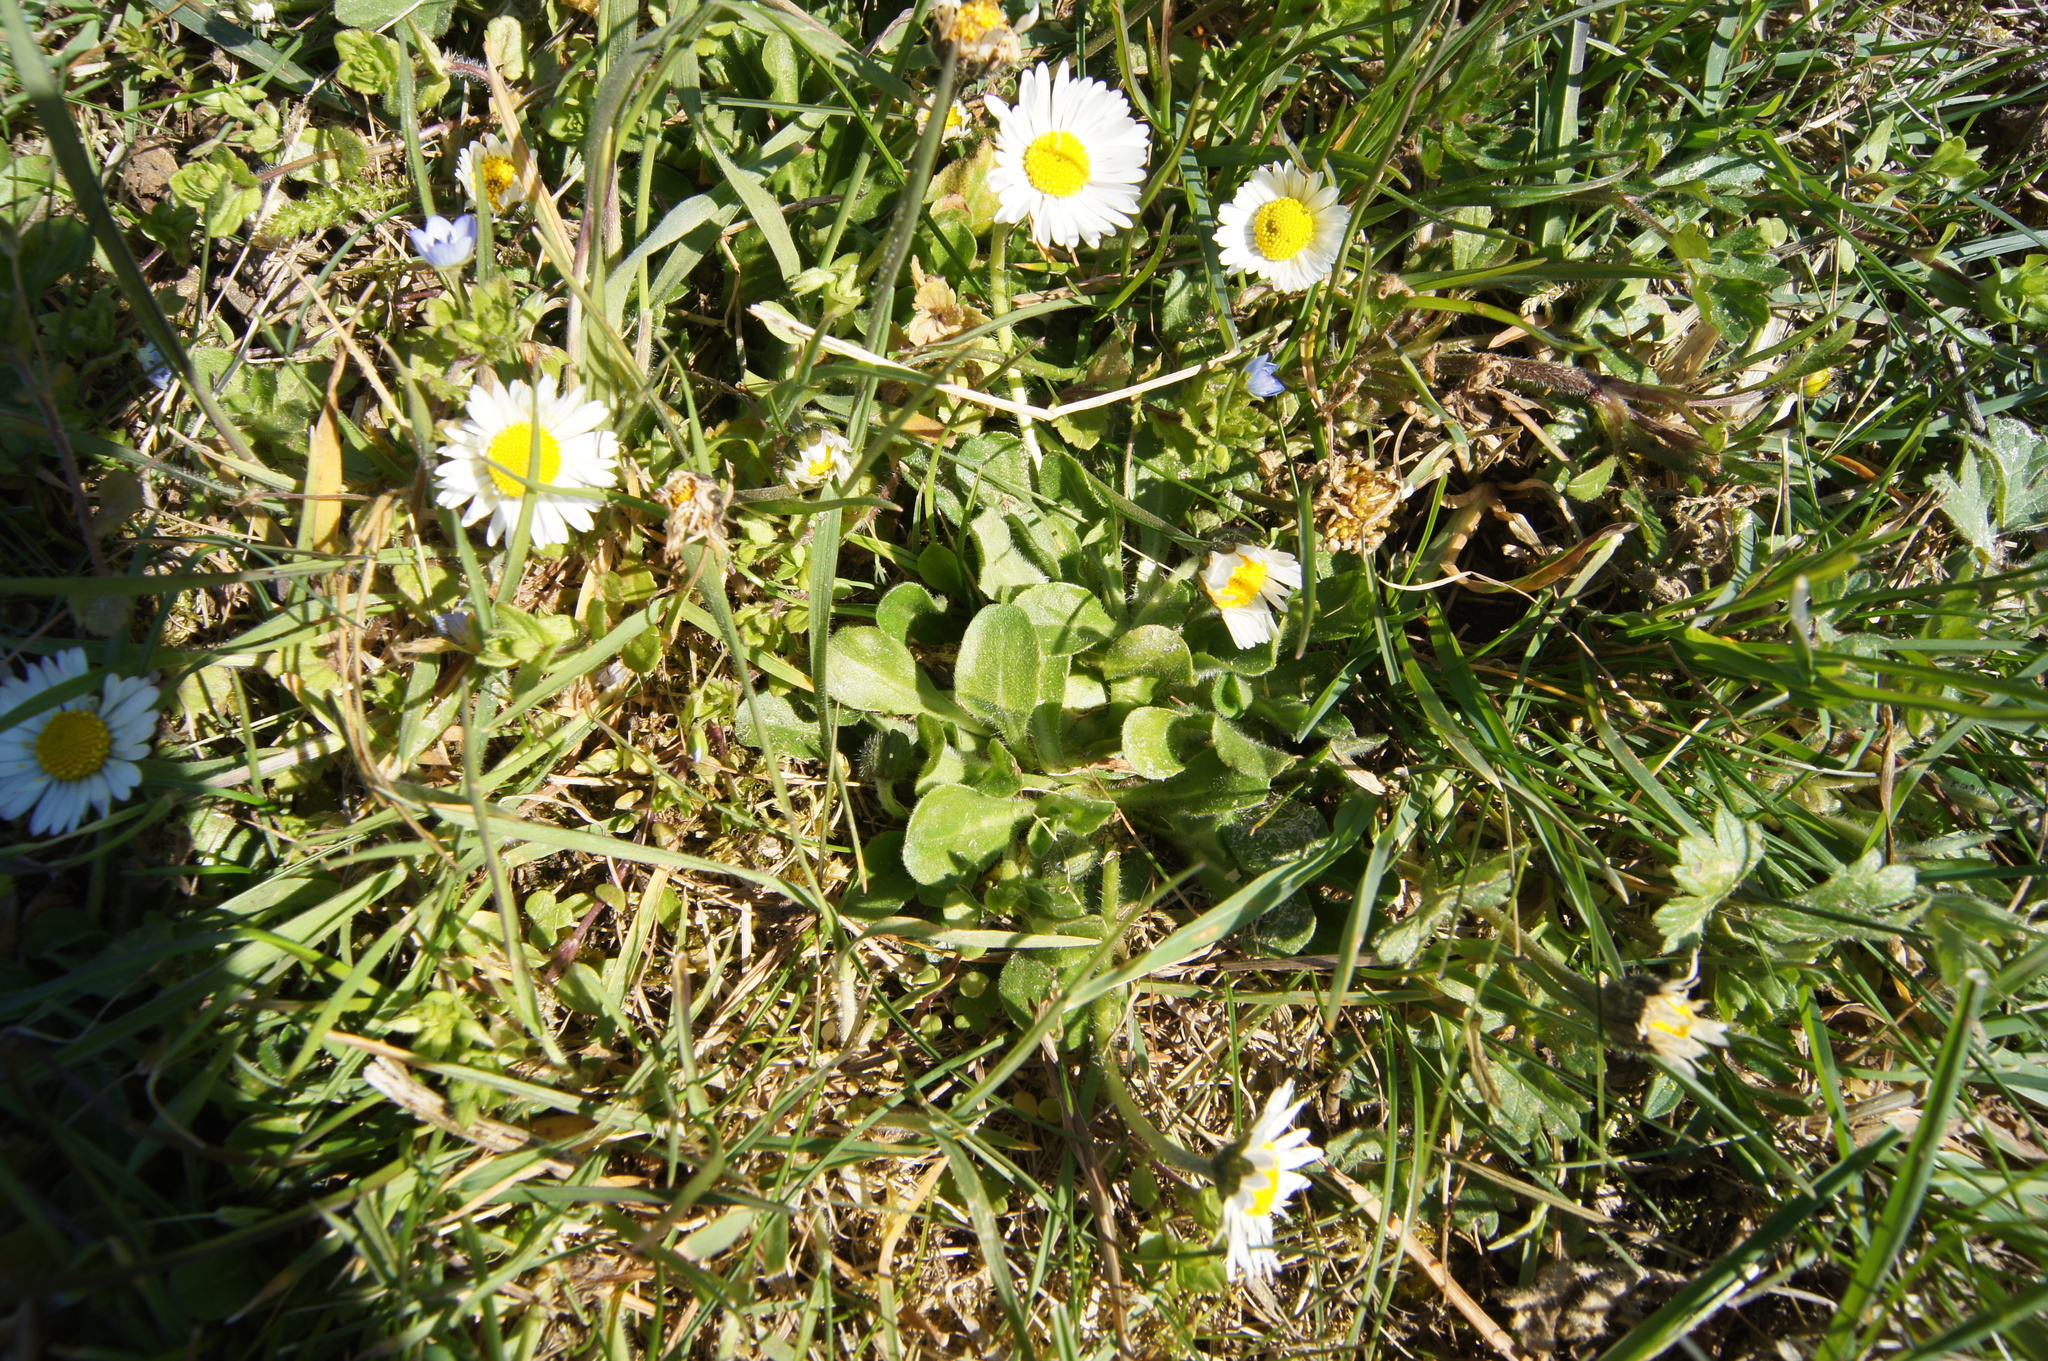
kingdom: Plantae
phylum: Tracheophyta
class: Magnoliopsida
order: Asterales
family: Asteraceae
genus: Bellis
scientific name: Bellis perennis
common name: Lawndaisy
